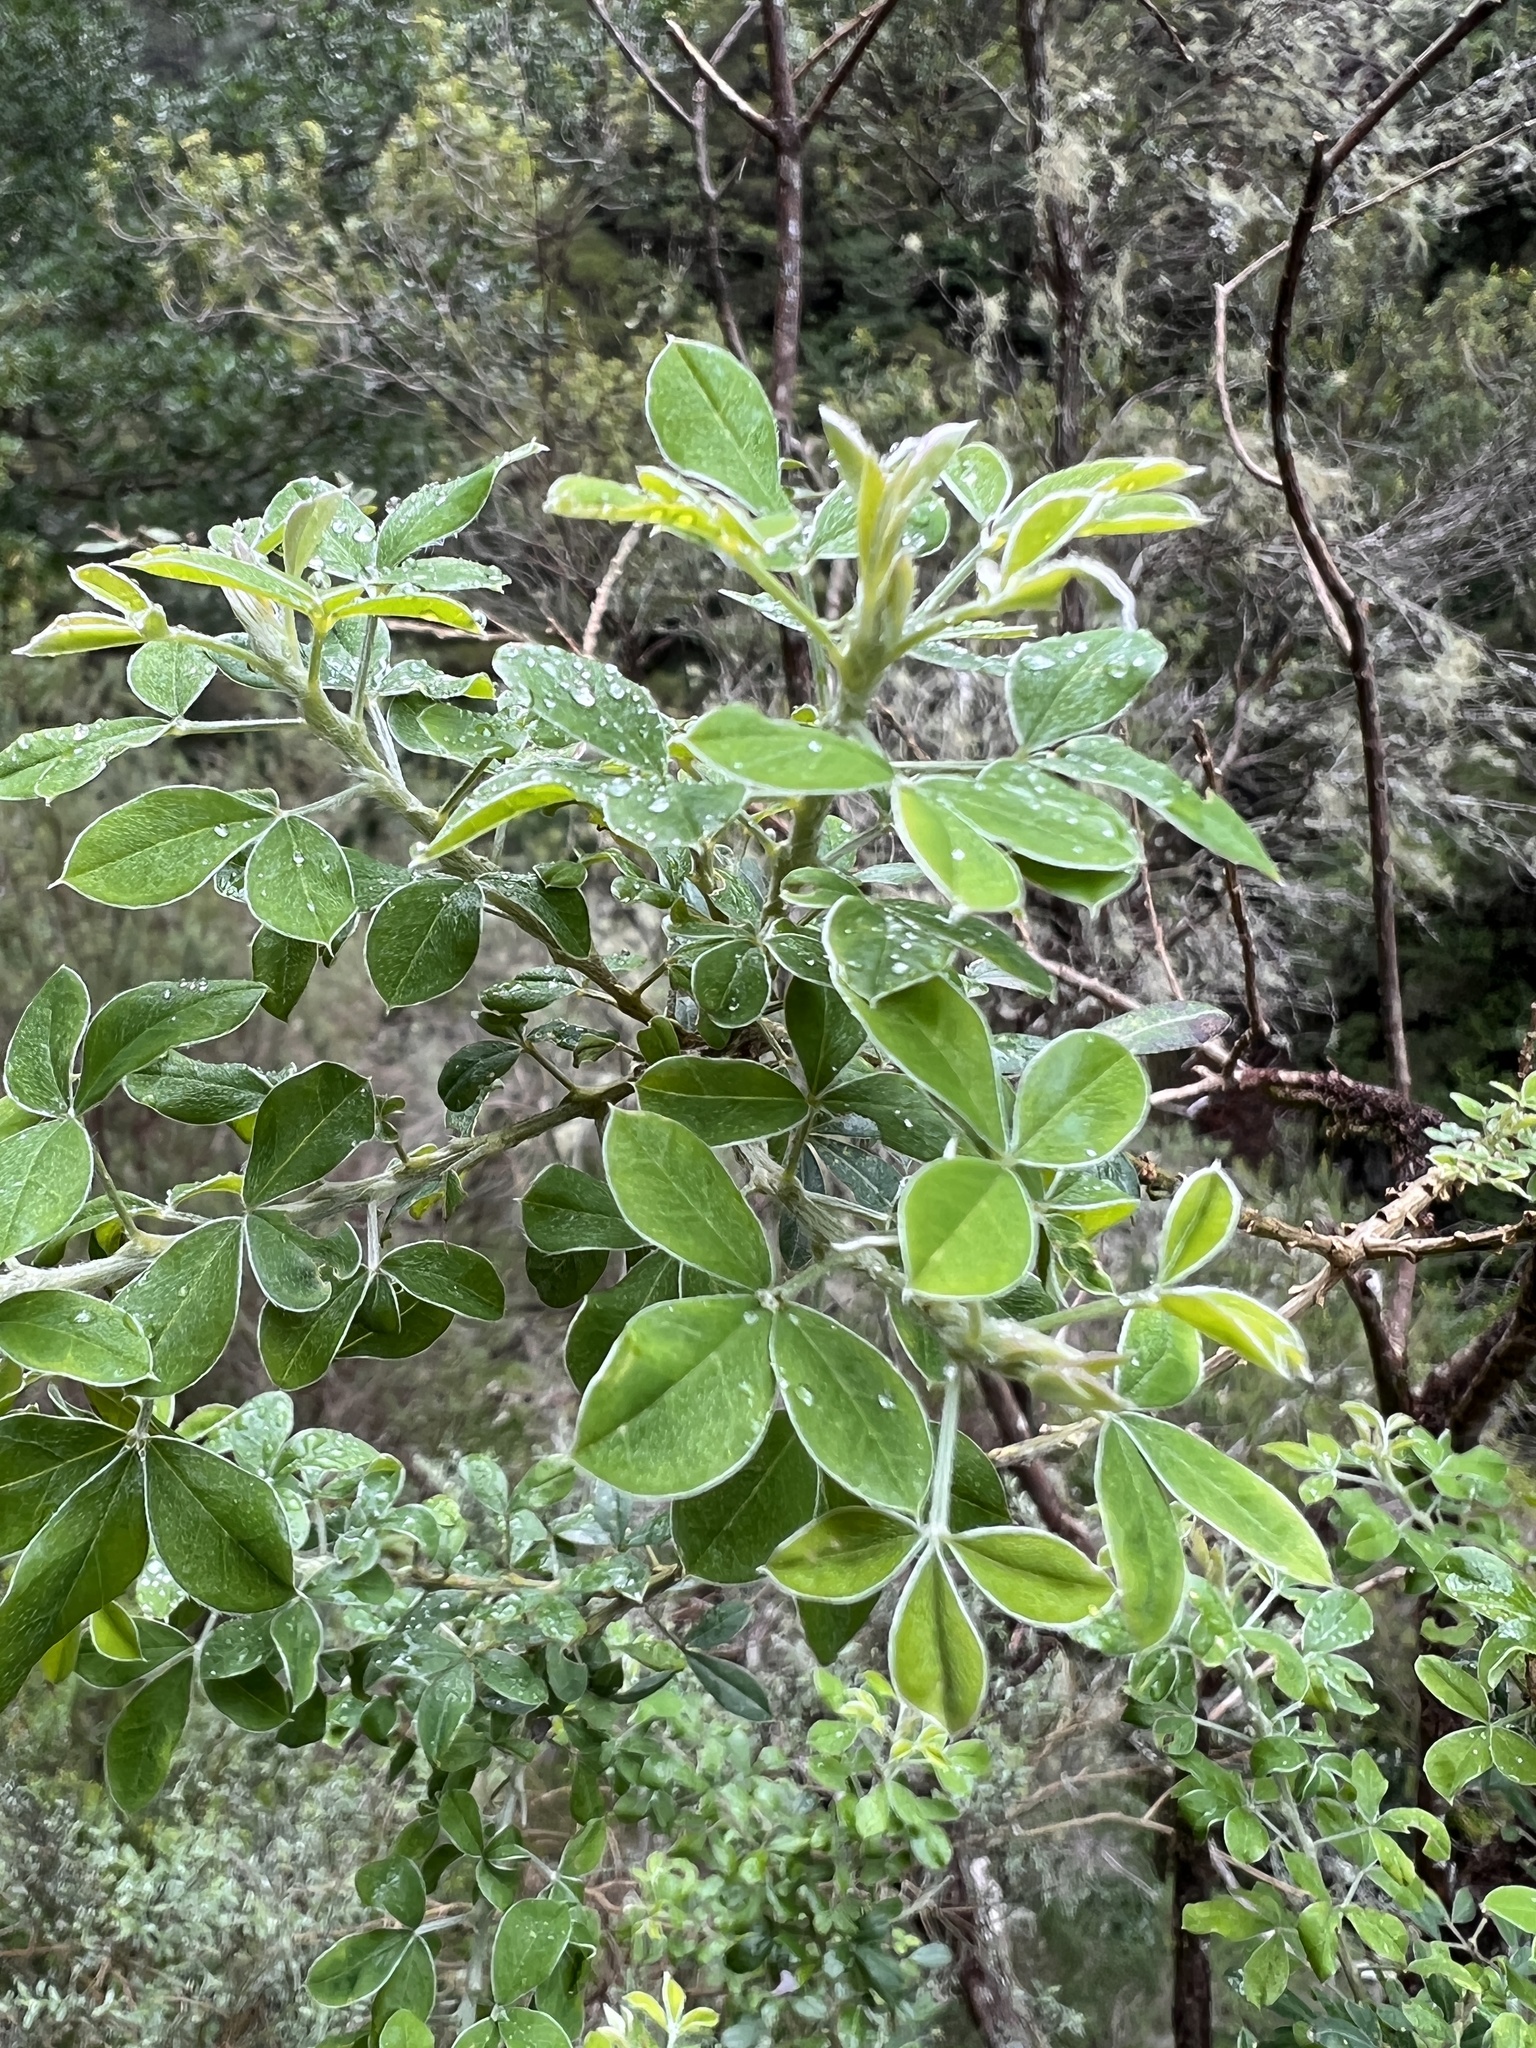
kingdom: Plantae
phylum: Tracheophyta
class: Magnoliopsida
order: Fabales
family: Fabaceae
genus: Genista
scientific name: Genista maderensis
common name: Madeira dyer's greenweed
